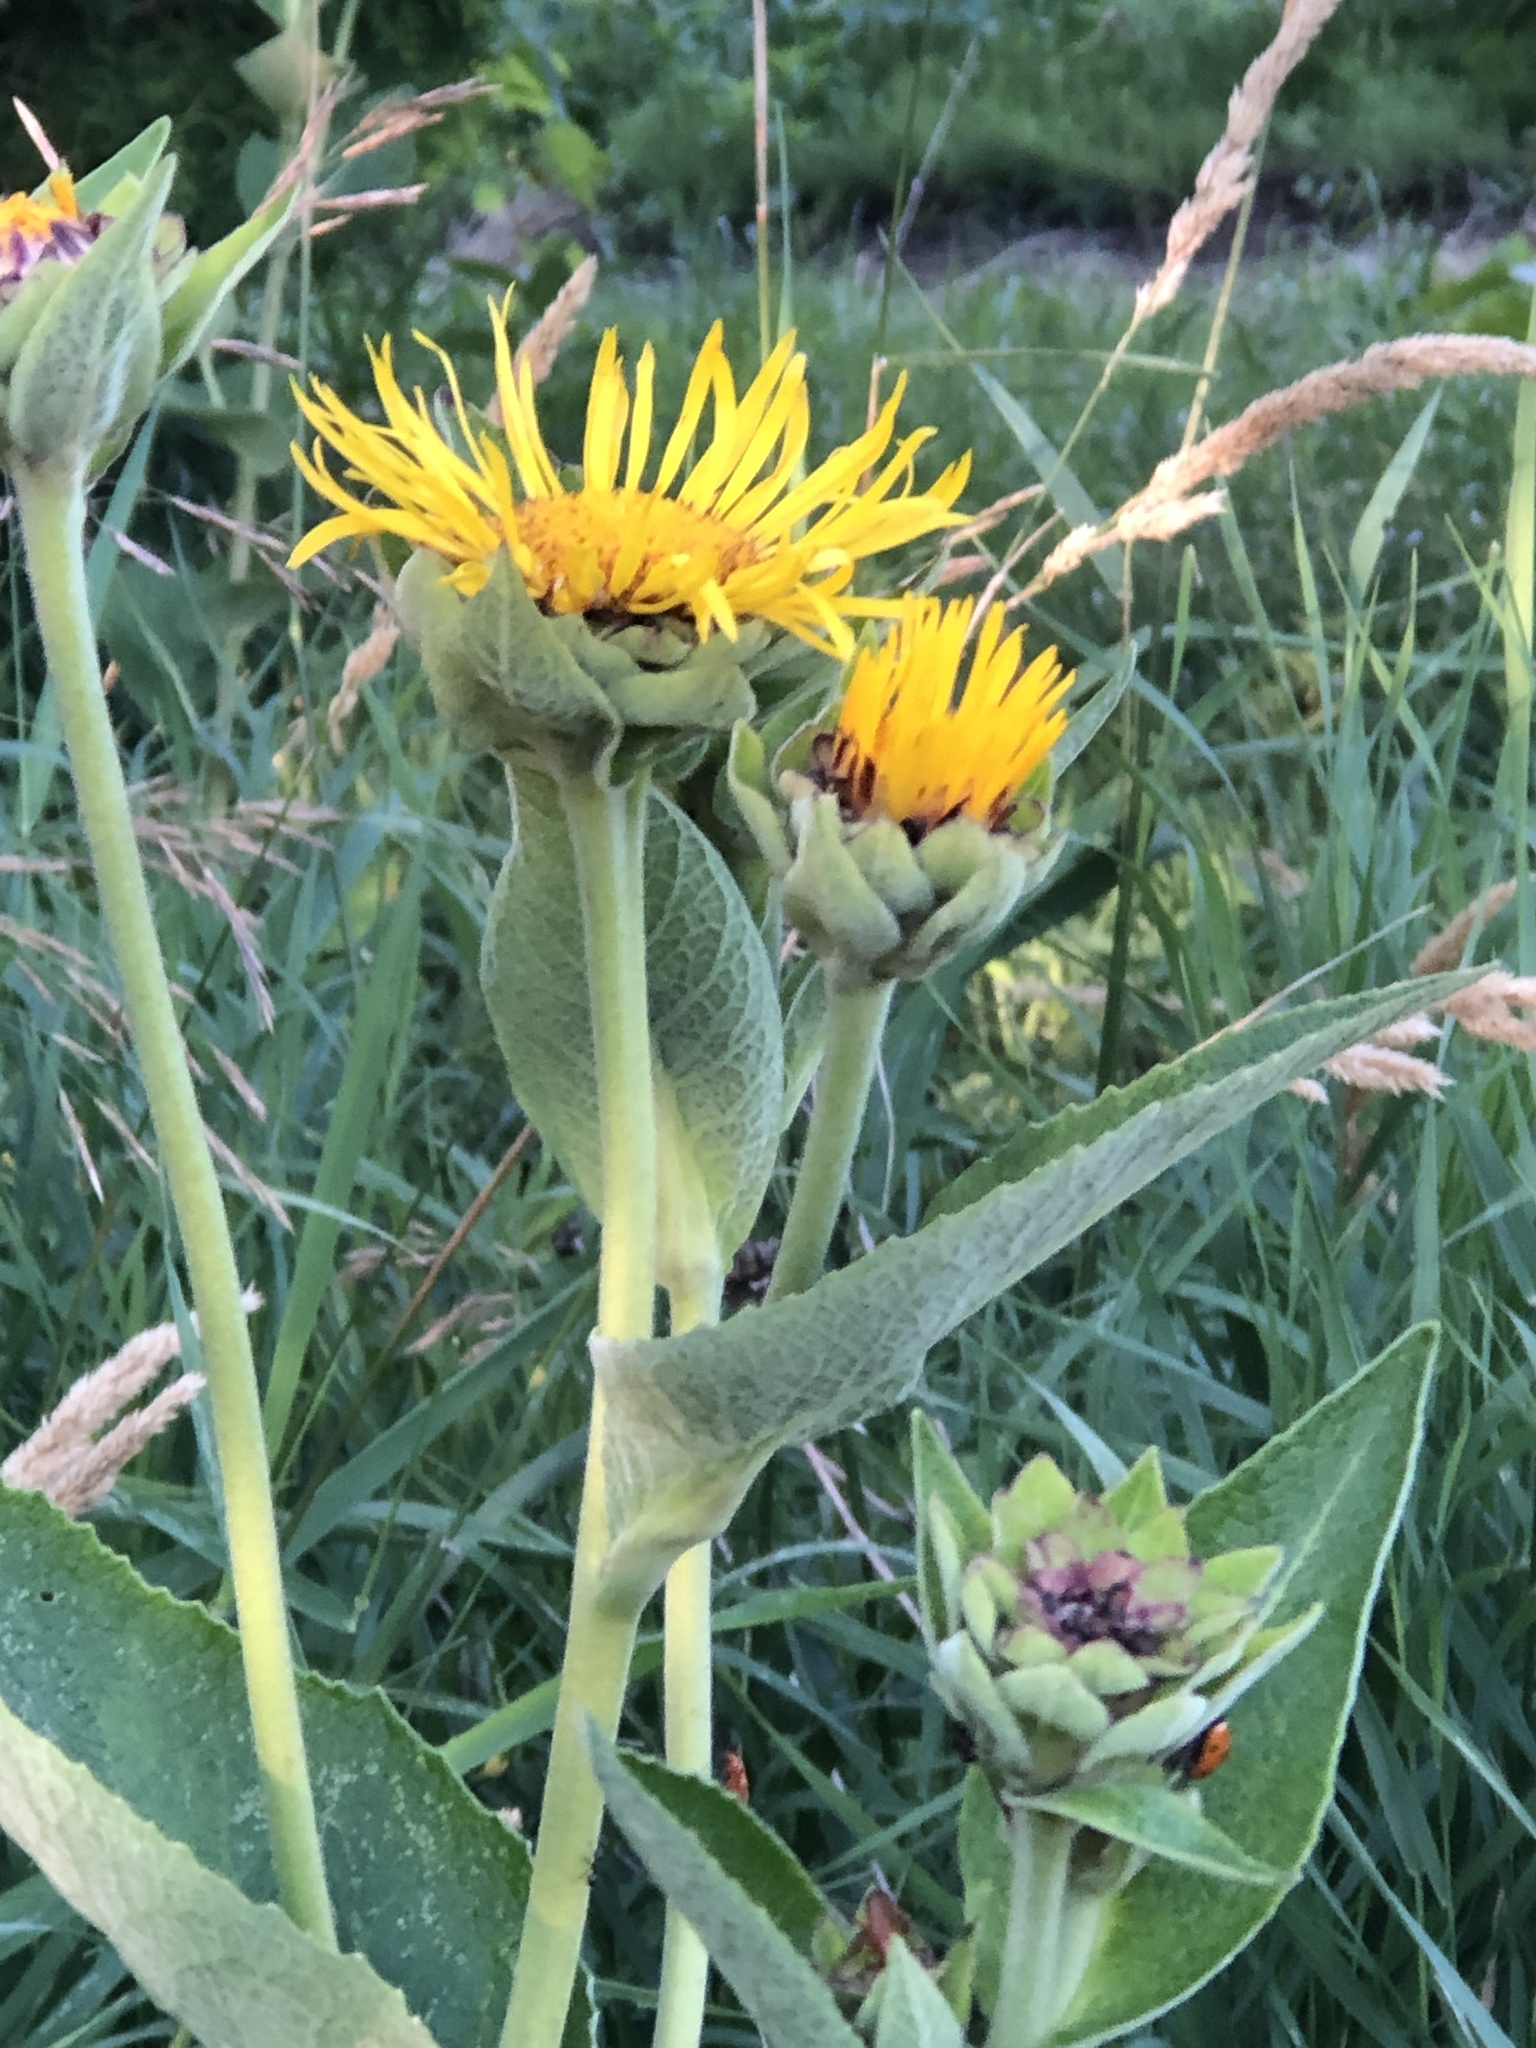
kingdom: Plantae
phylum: Tracheophyta
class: Magnoliopsida
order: Asterales
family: Asteraceae
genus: Inula
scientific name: Inula helenium
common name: Elecampane
